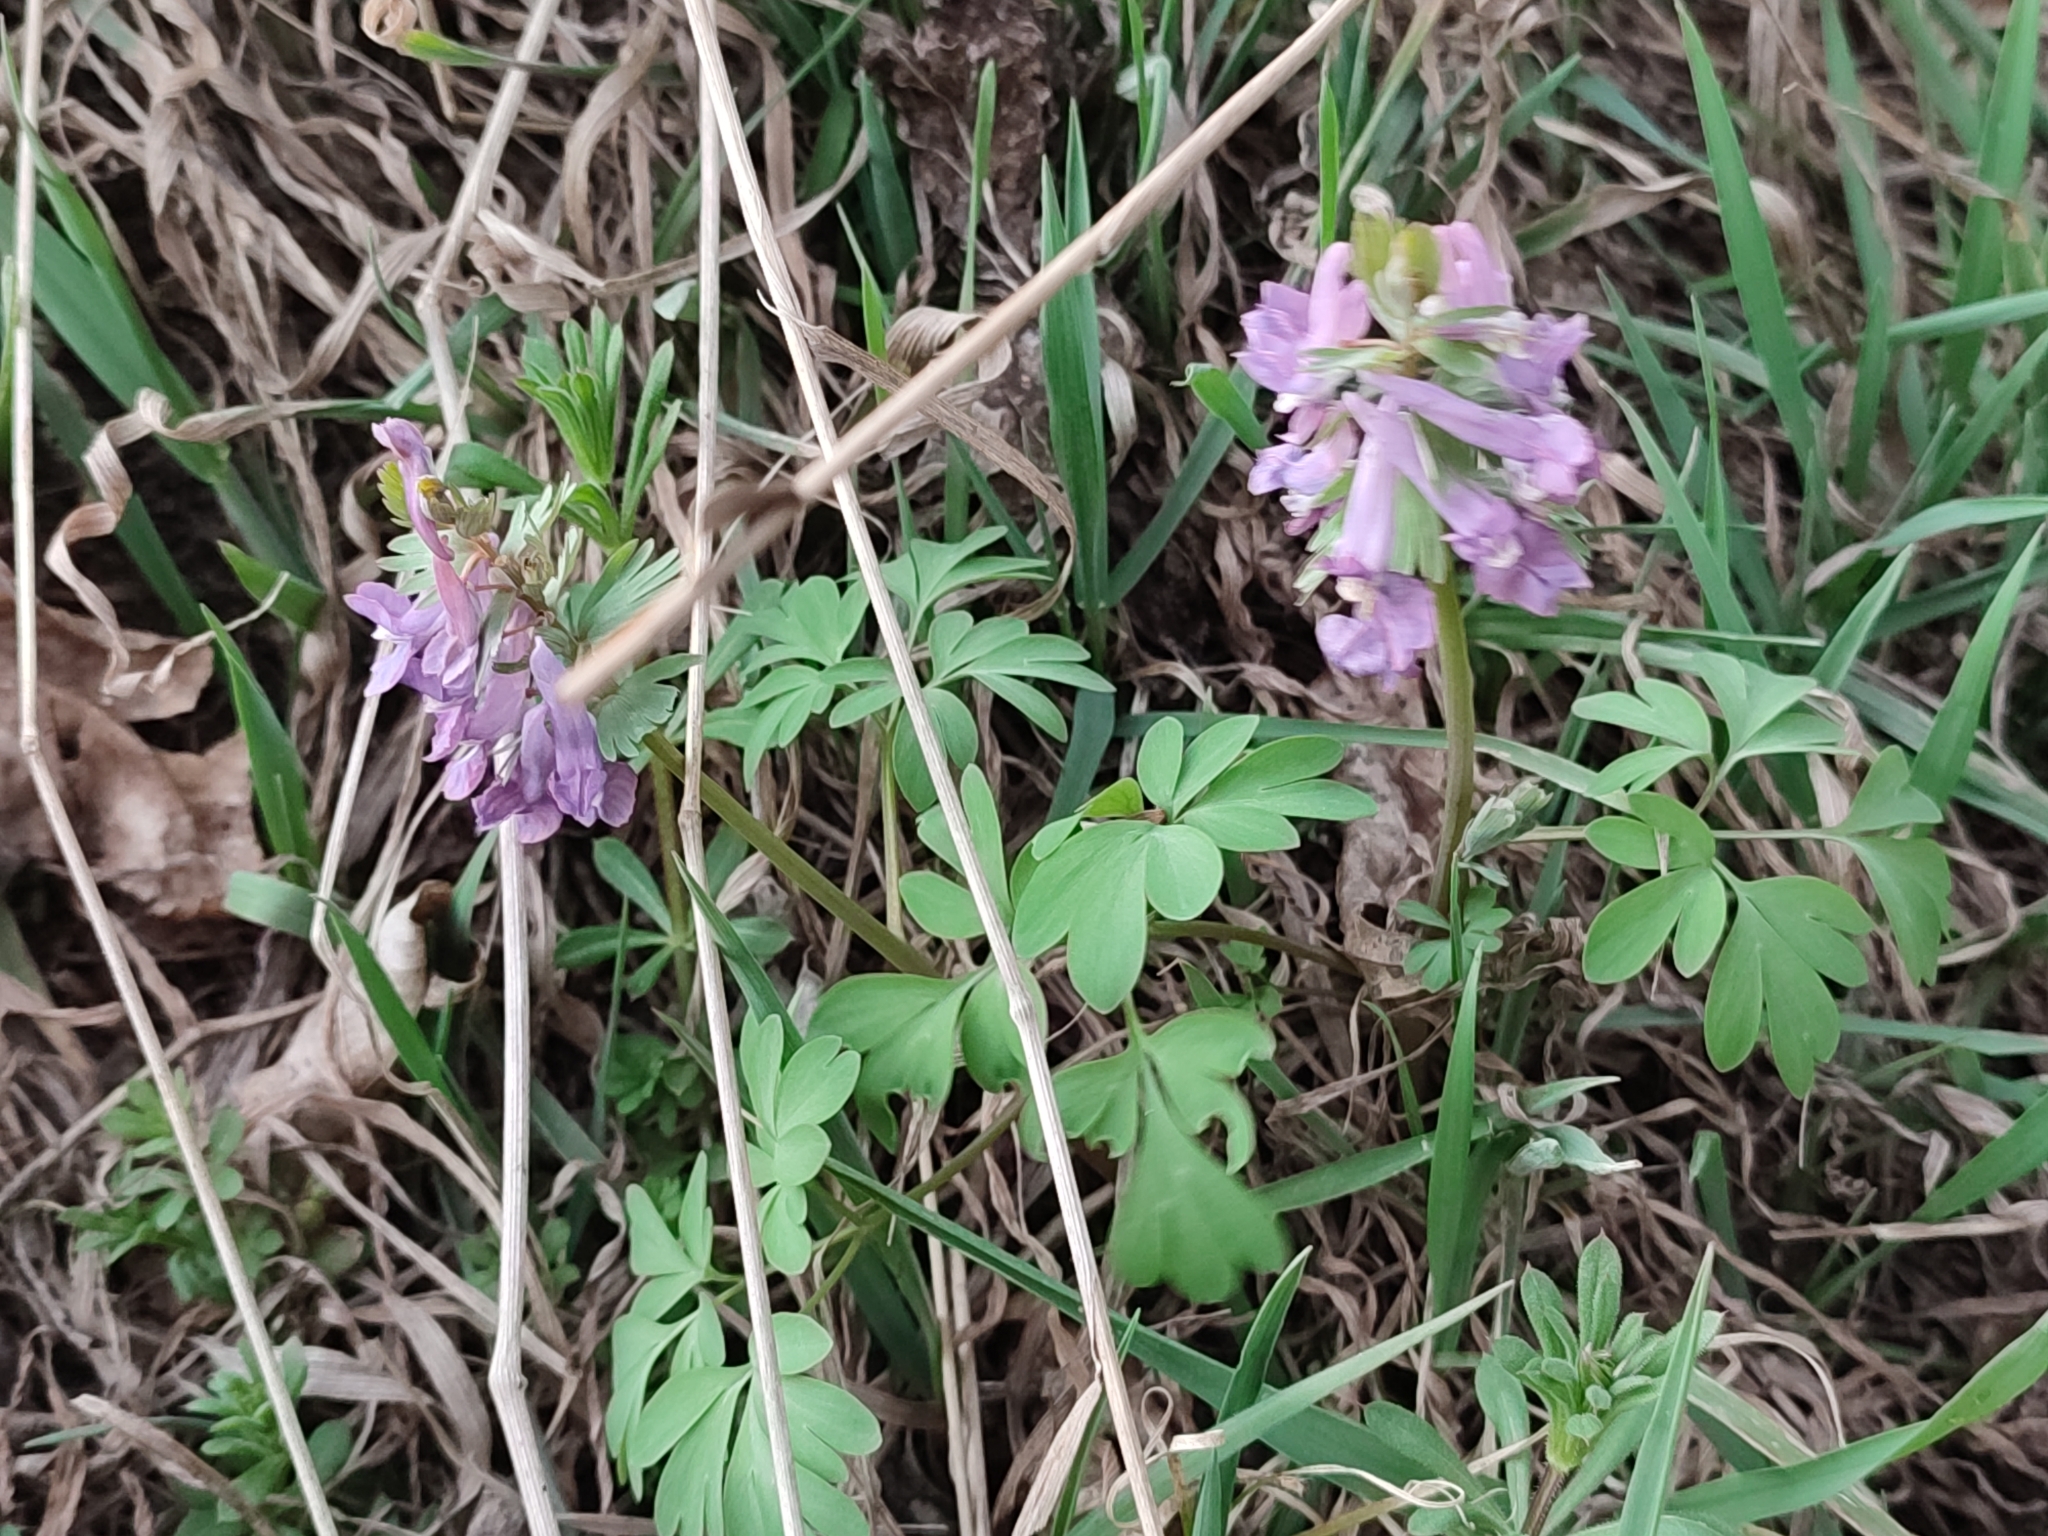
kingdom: Plantae
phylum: Tracheophyta
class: Magnoliopsida
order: Ranunculales
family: Papaveraceae
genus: Corydalis
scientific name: Corydalis solida
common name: Bird-in-a-bush
